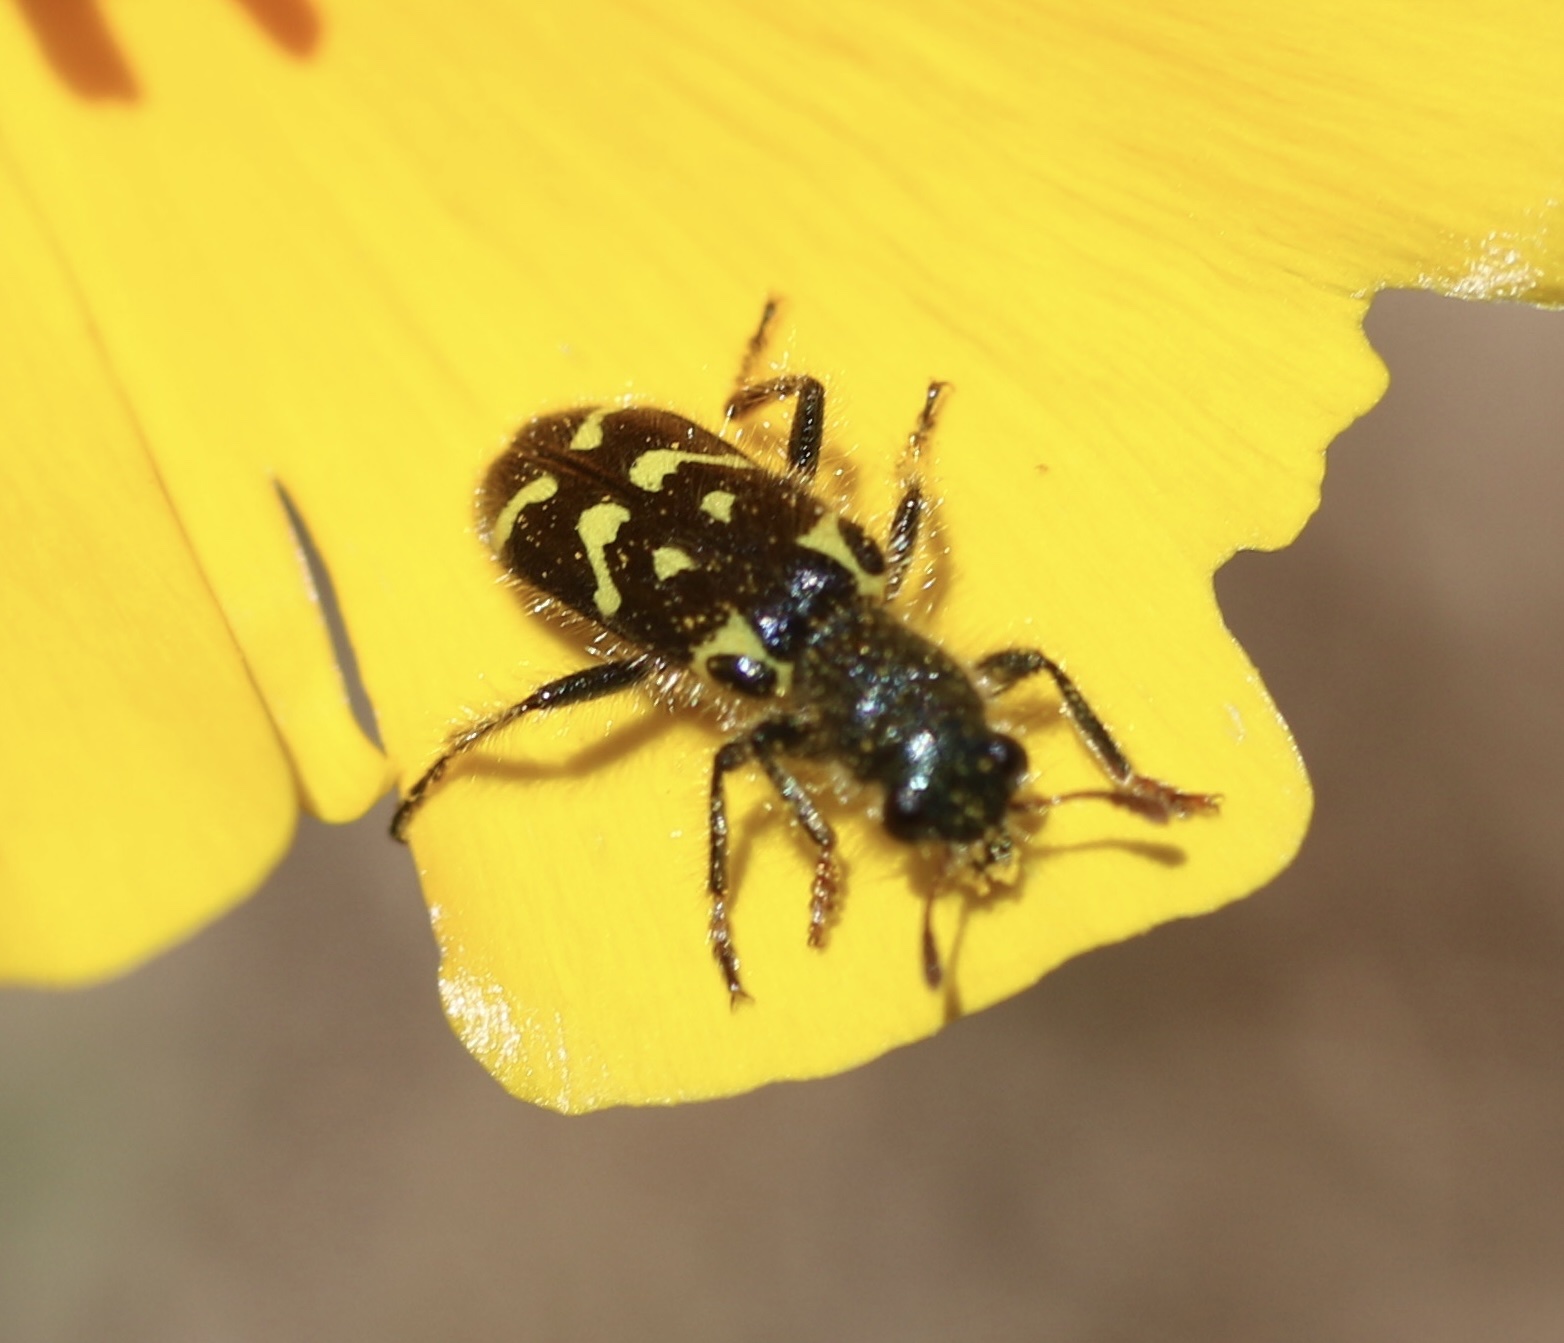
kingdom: Animalia
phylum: Arthropoda
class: Insecta
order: Coleoptera
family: Cleridae
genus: Trichodes
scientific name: Trichodes ornatus
